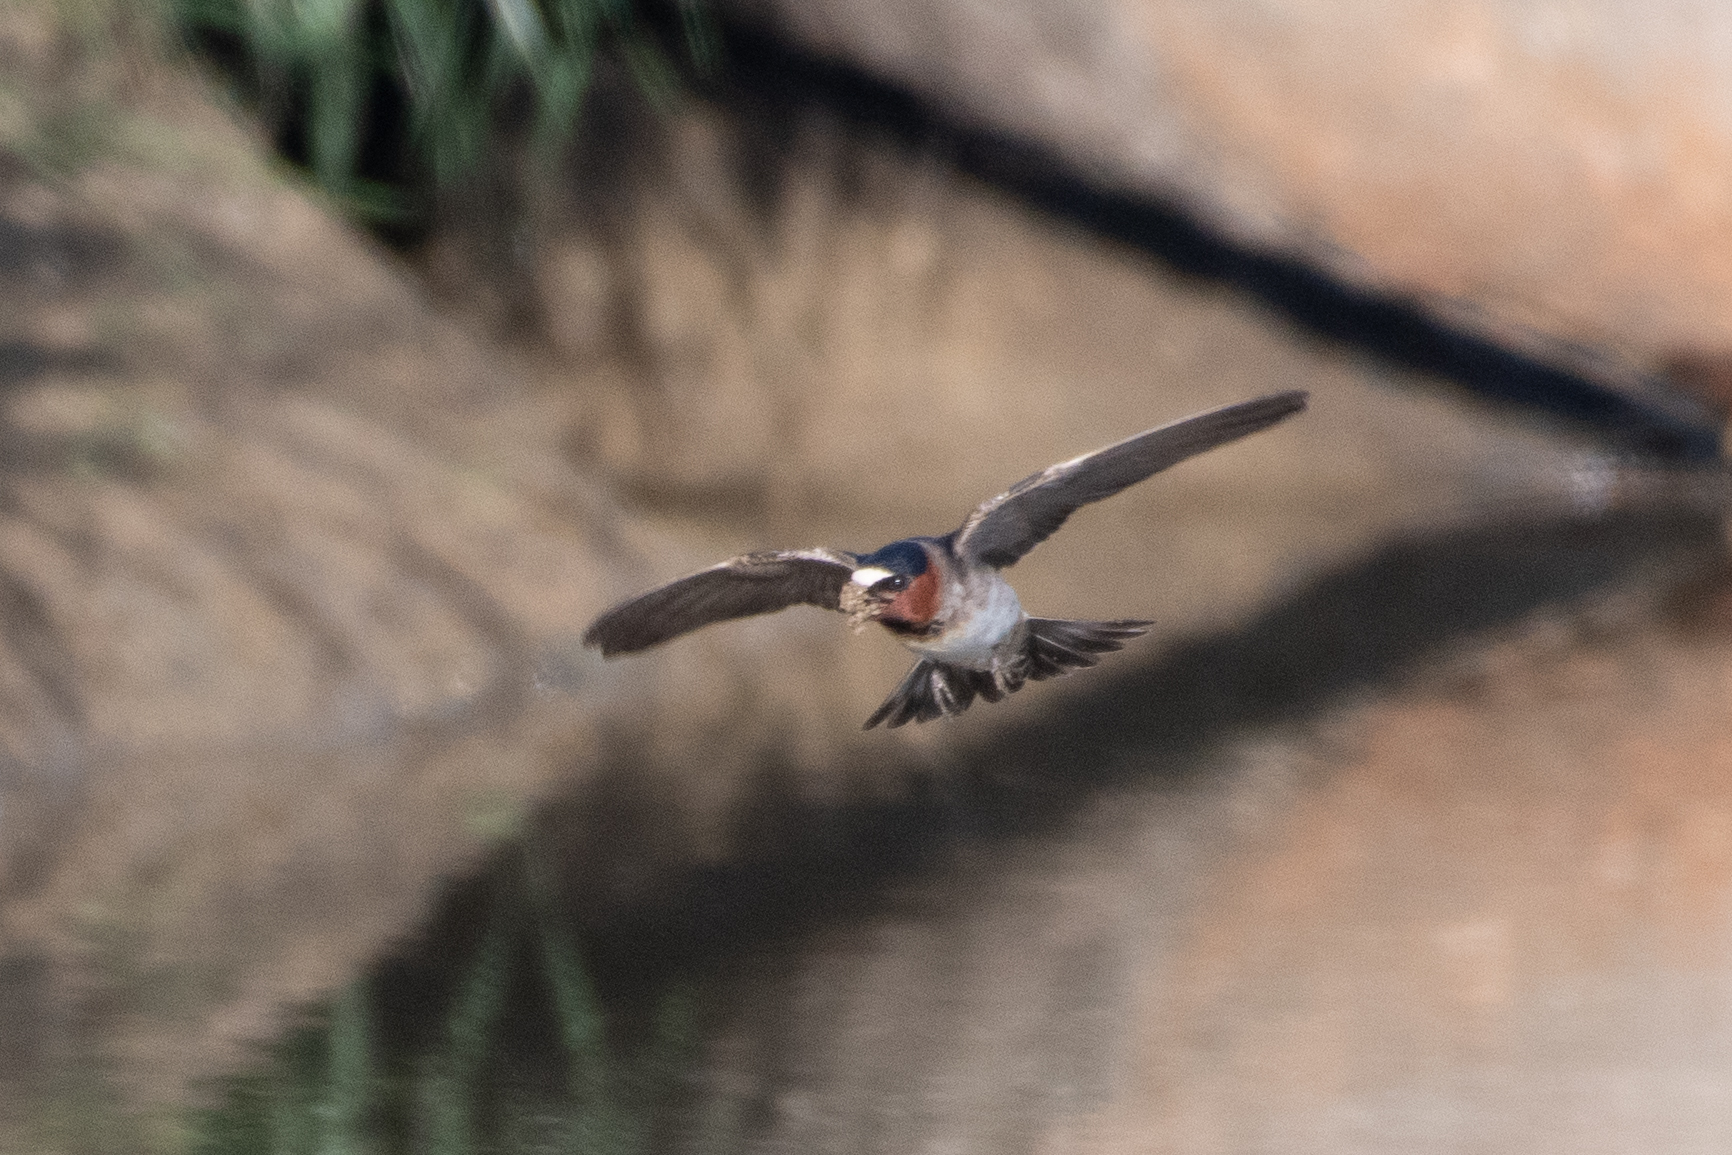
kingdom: Animalia
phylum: Chordata
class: Aves
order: Passeriformes
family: Hirundinidae
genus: Petrochelidon
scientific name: Petrochelidon pyrrhonota
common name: American cliff swallow
